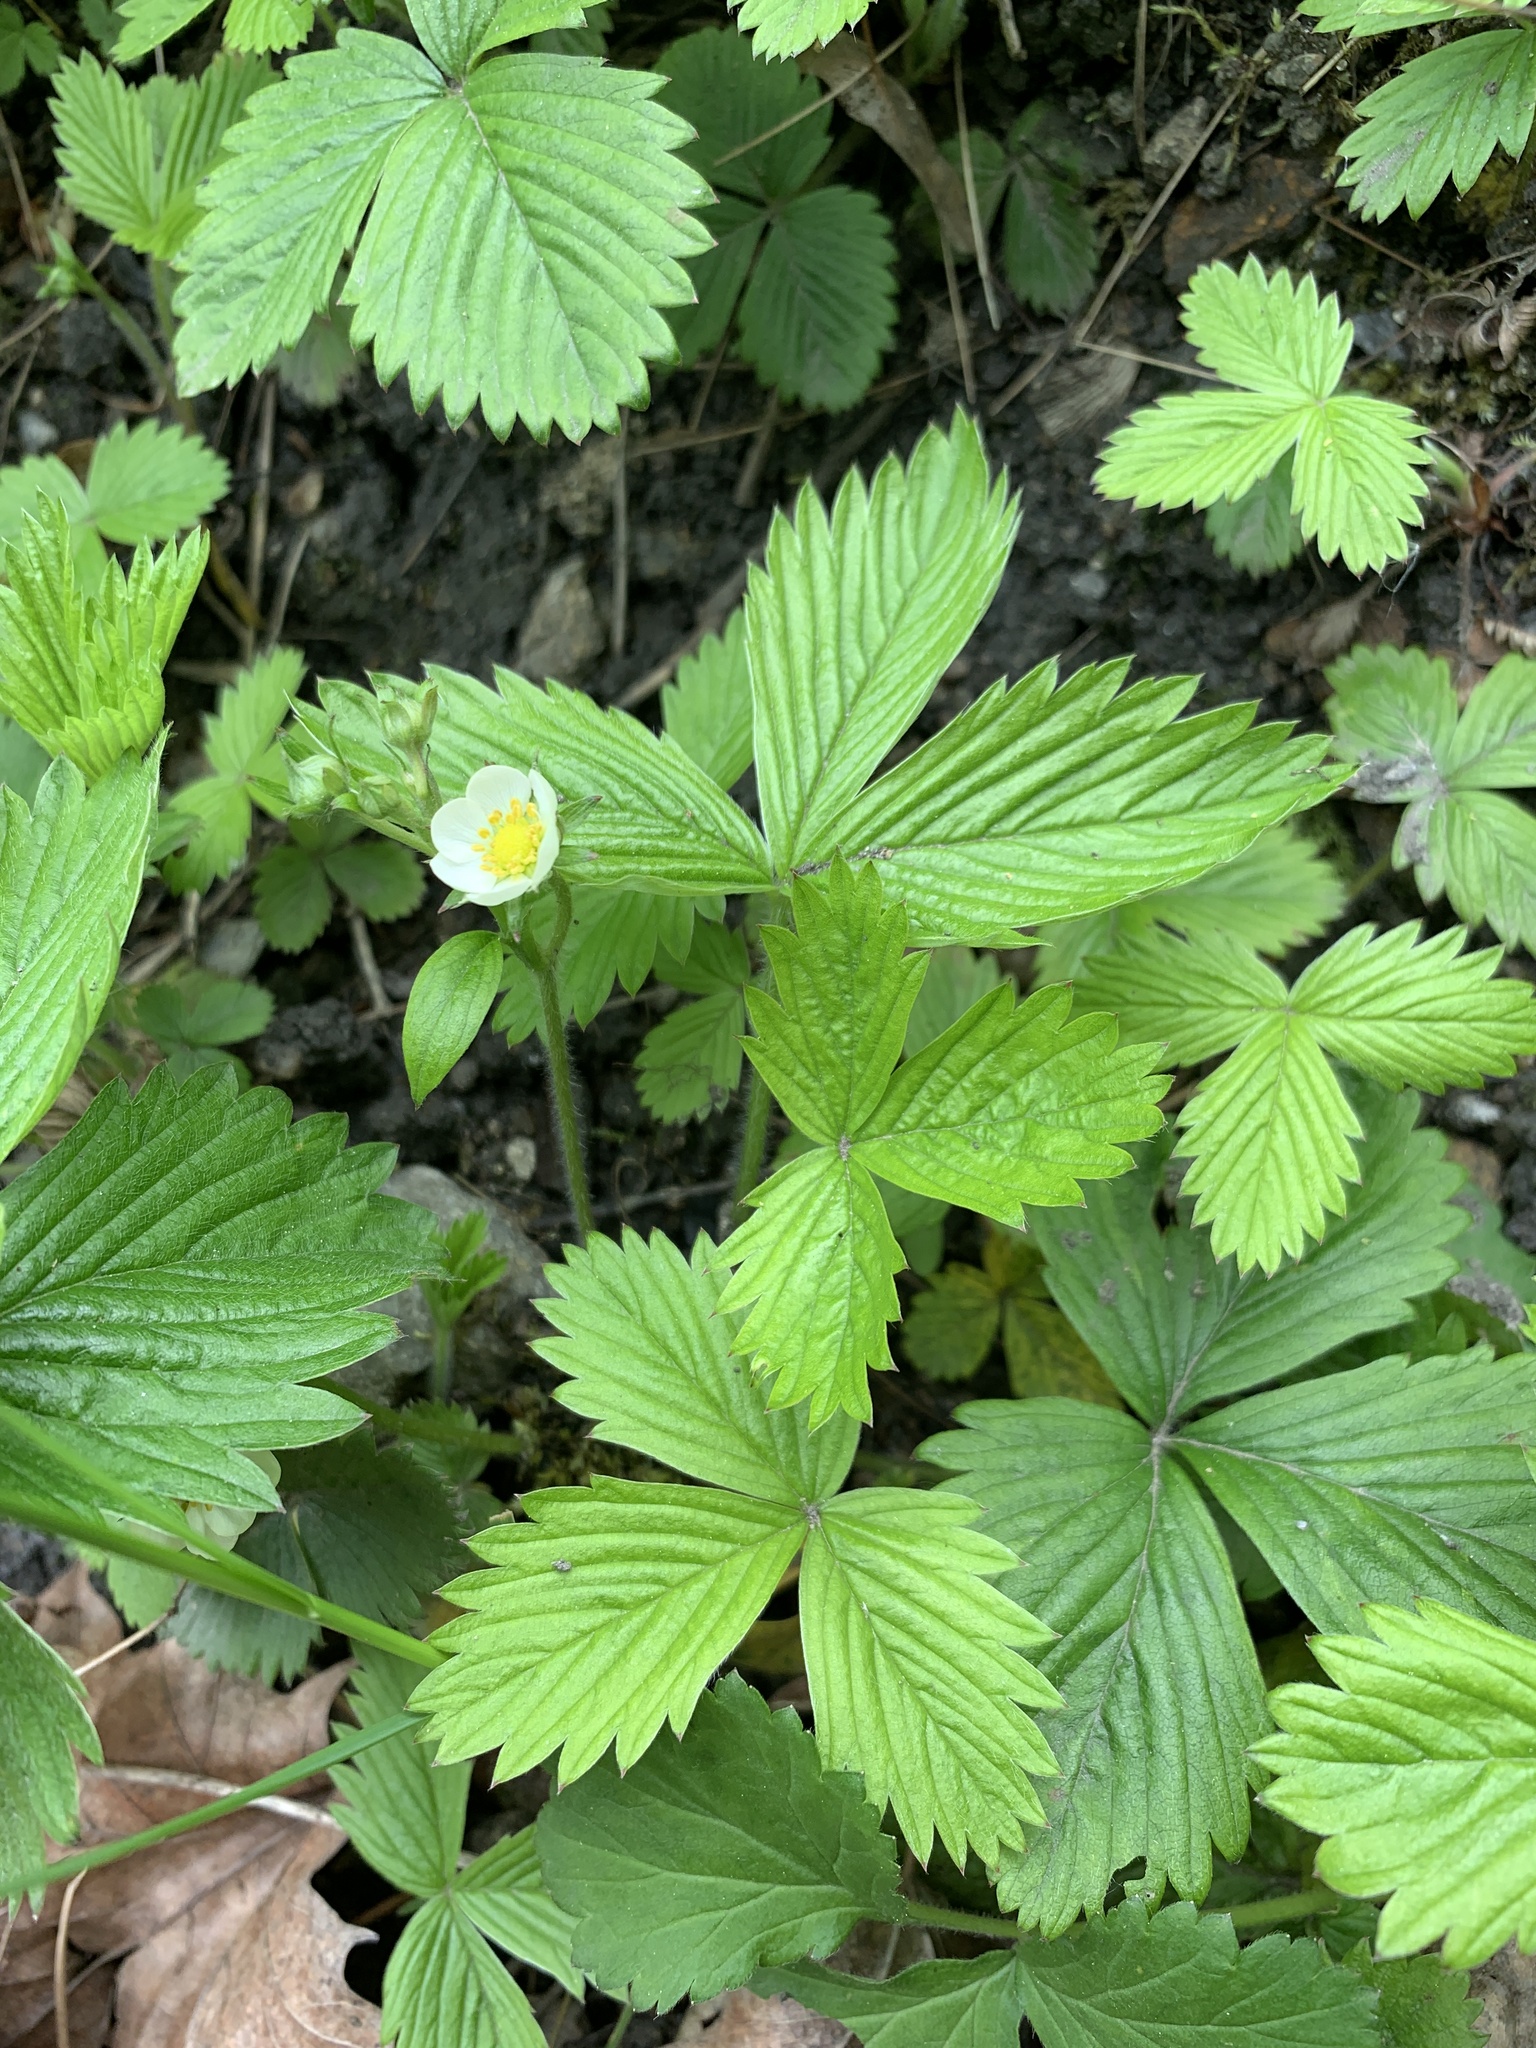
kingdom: Plantae
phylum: Tracheophyta
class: Magnoliopsida
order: Rosales
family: Rosaceae
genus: Fragaria
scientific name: Fragaria vesca
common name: Wild strawberry
